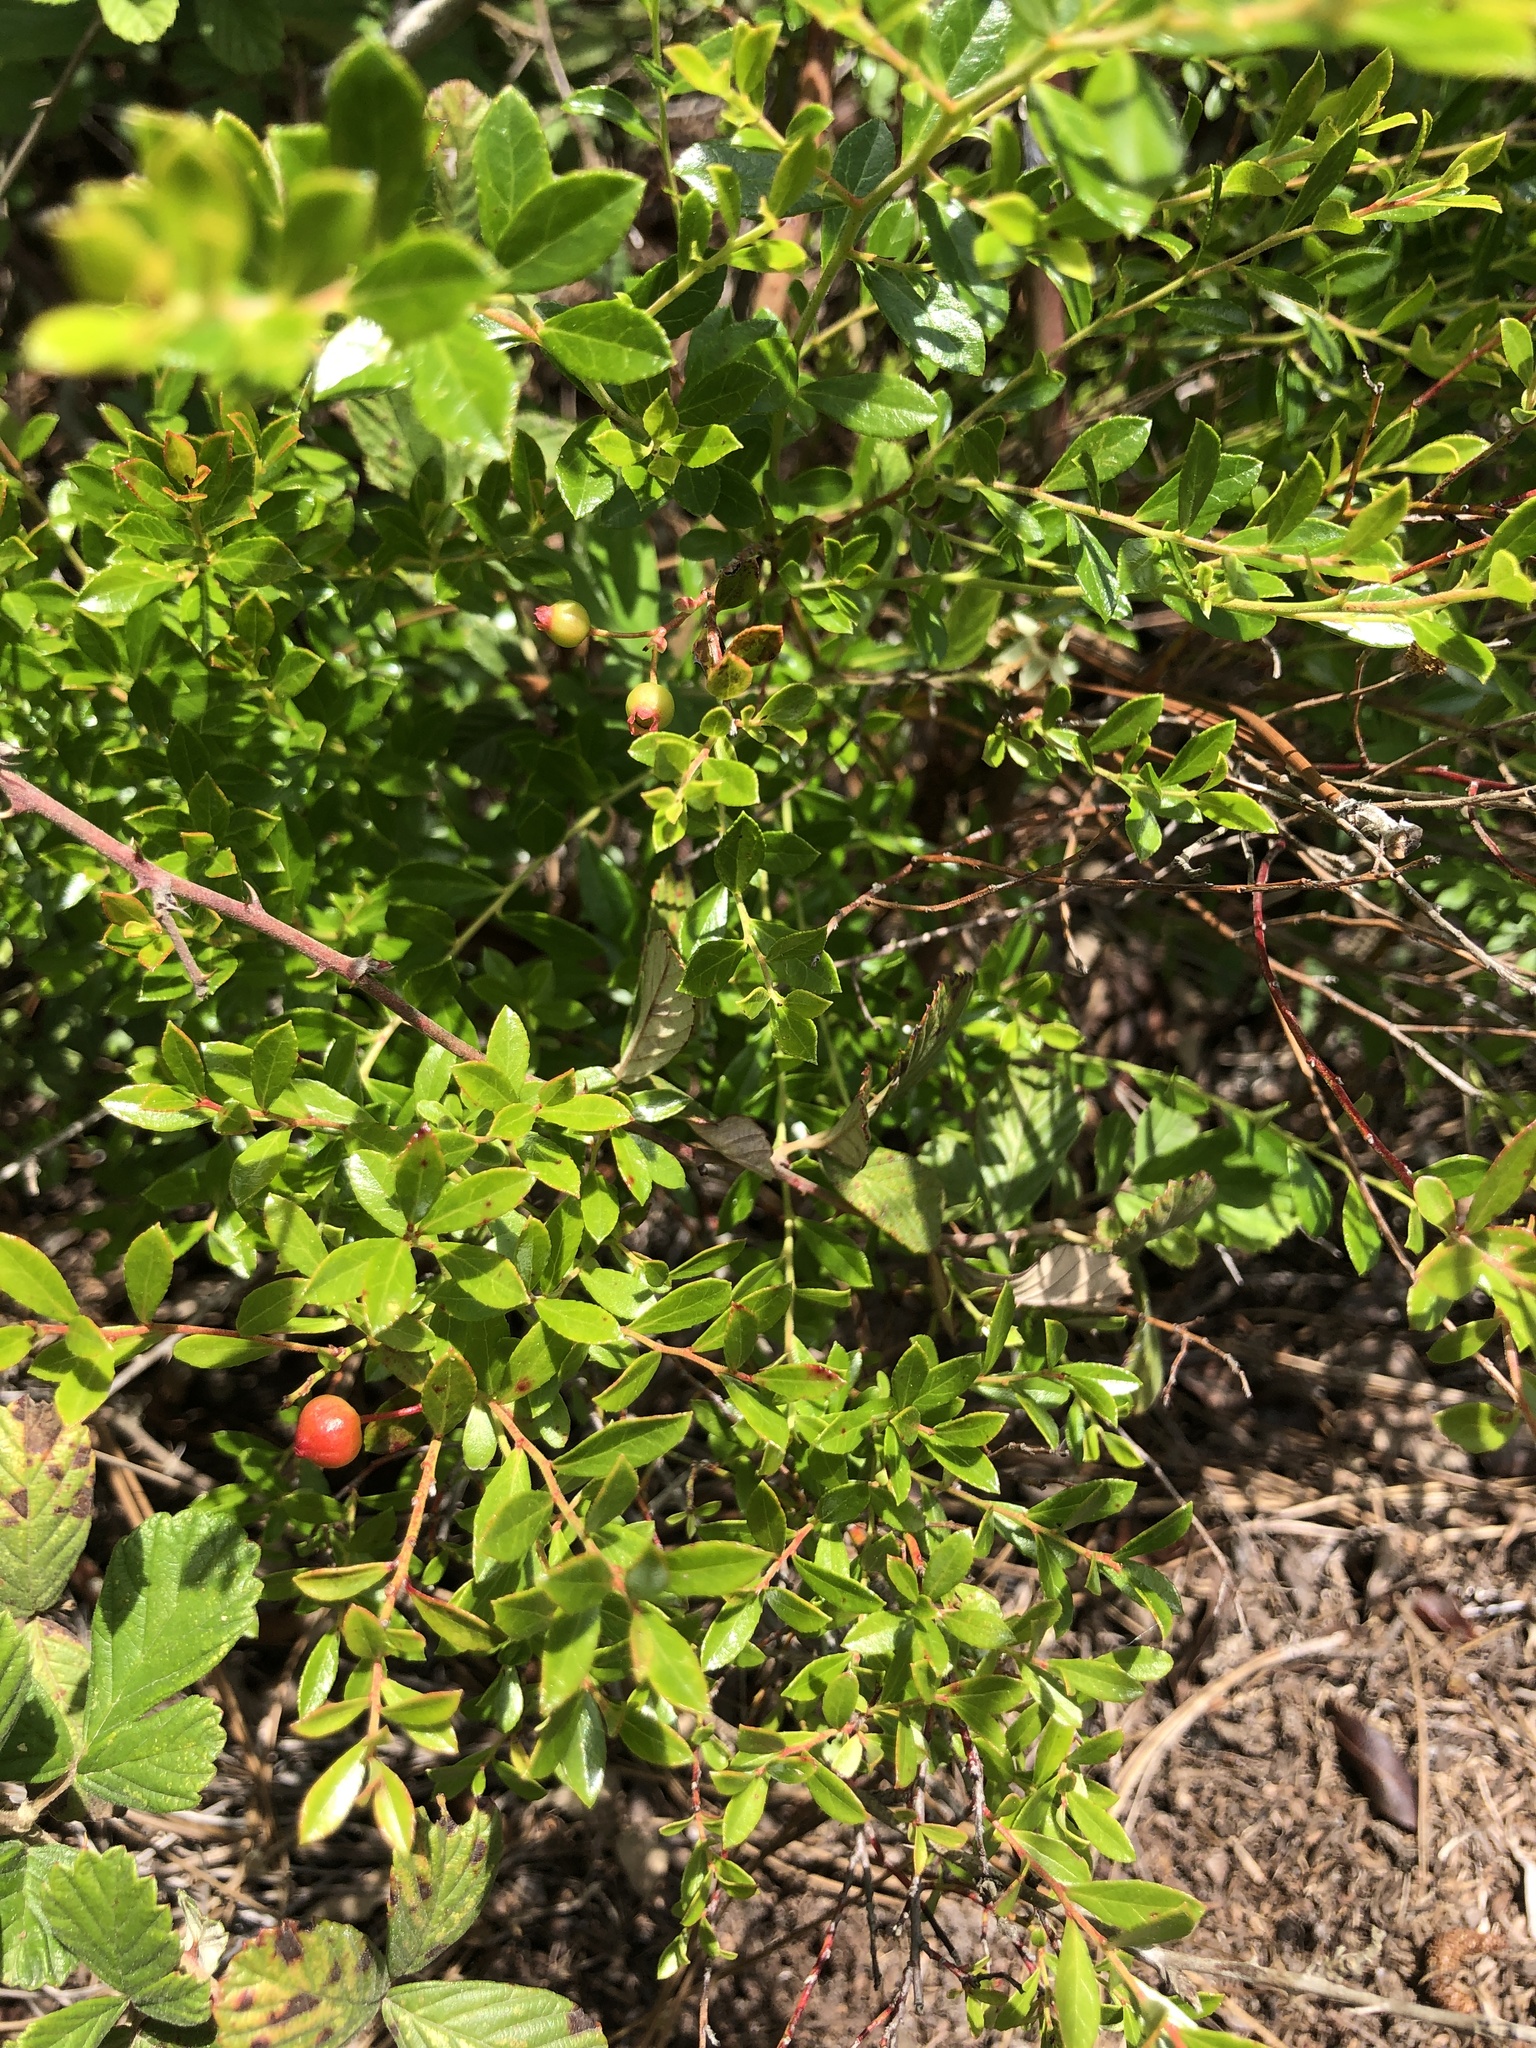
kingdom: Plantae
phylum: Tracheophyta
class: Magnoliopsida
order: Ericales
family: Ericaceae
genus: Vaccinium
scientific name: Vaccinium myrsinites
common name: Evergreen blueberry
